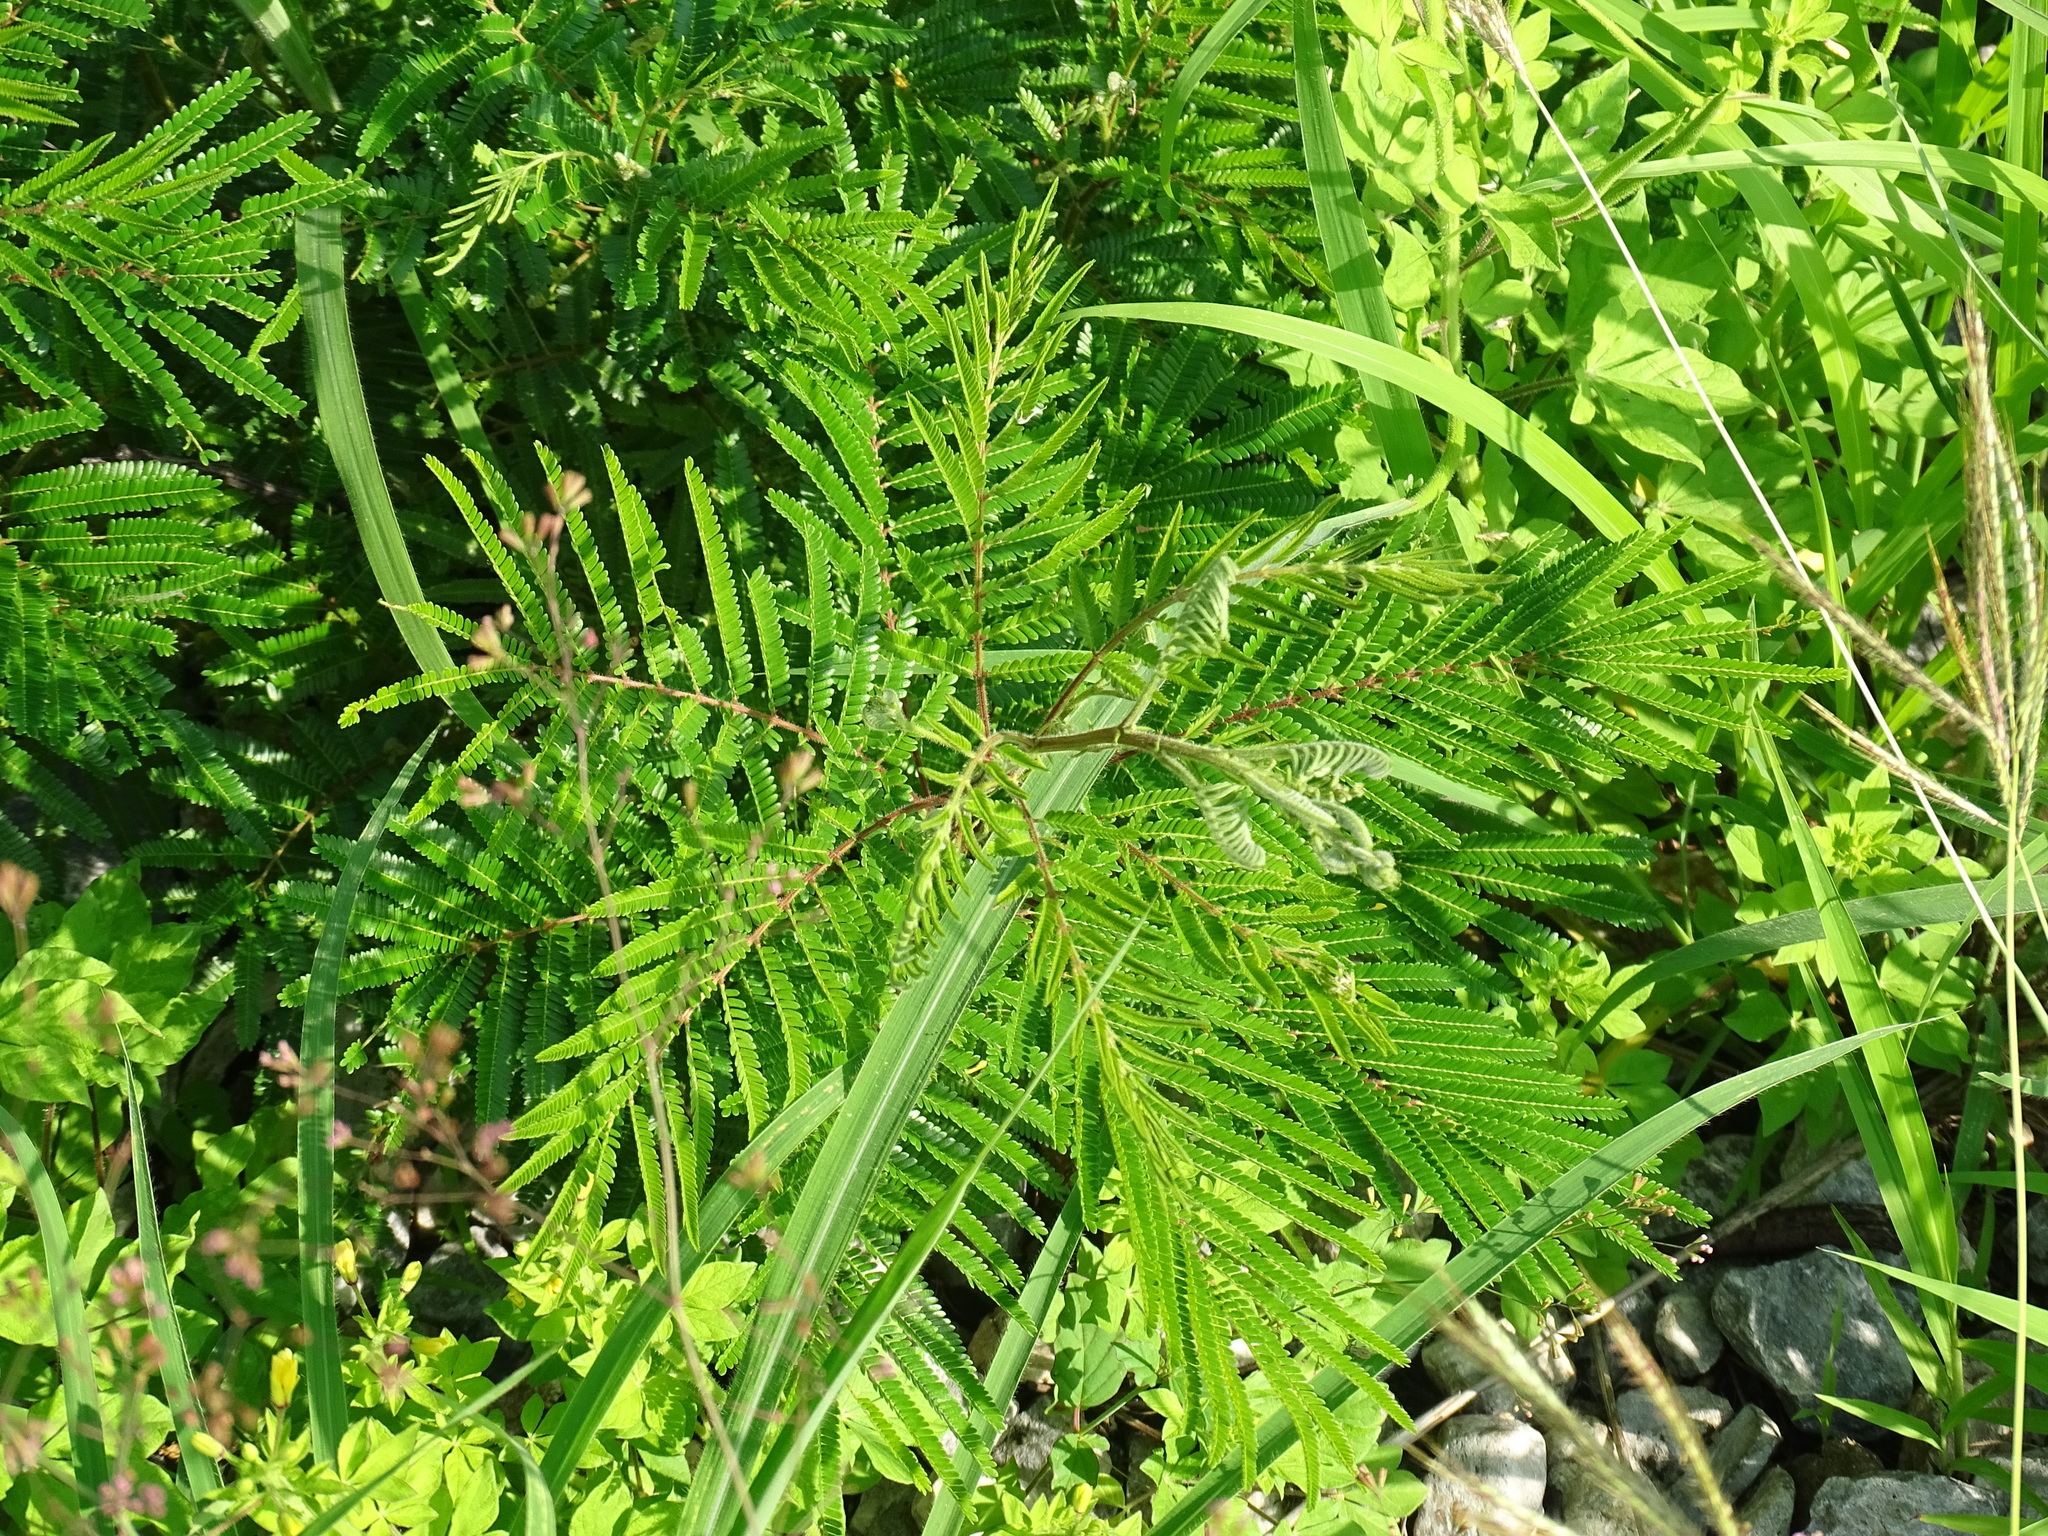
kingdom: Plantae
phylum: Tracheophyta
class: Magnoliopsida
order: Fabales
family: Fabaceae
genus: Acaciella
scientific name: Acaciella villosa
